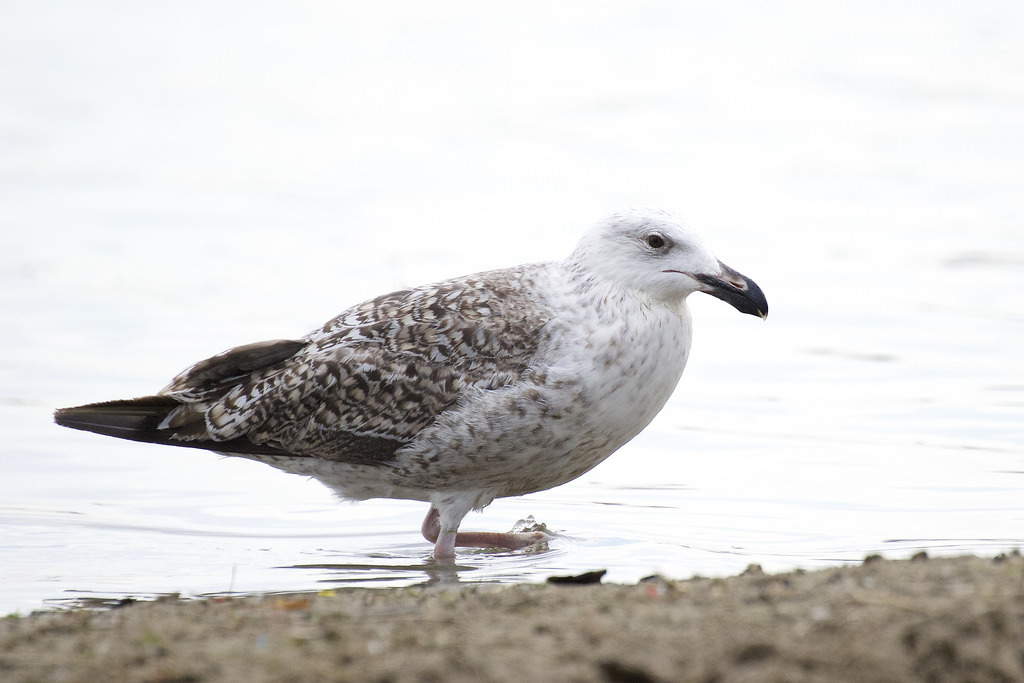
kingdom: Animalia
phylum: Chordata
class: Aves
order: Charadriiformes
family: Laridae
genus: Larus
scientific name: Larus marinus
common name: Great black-backed gull
